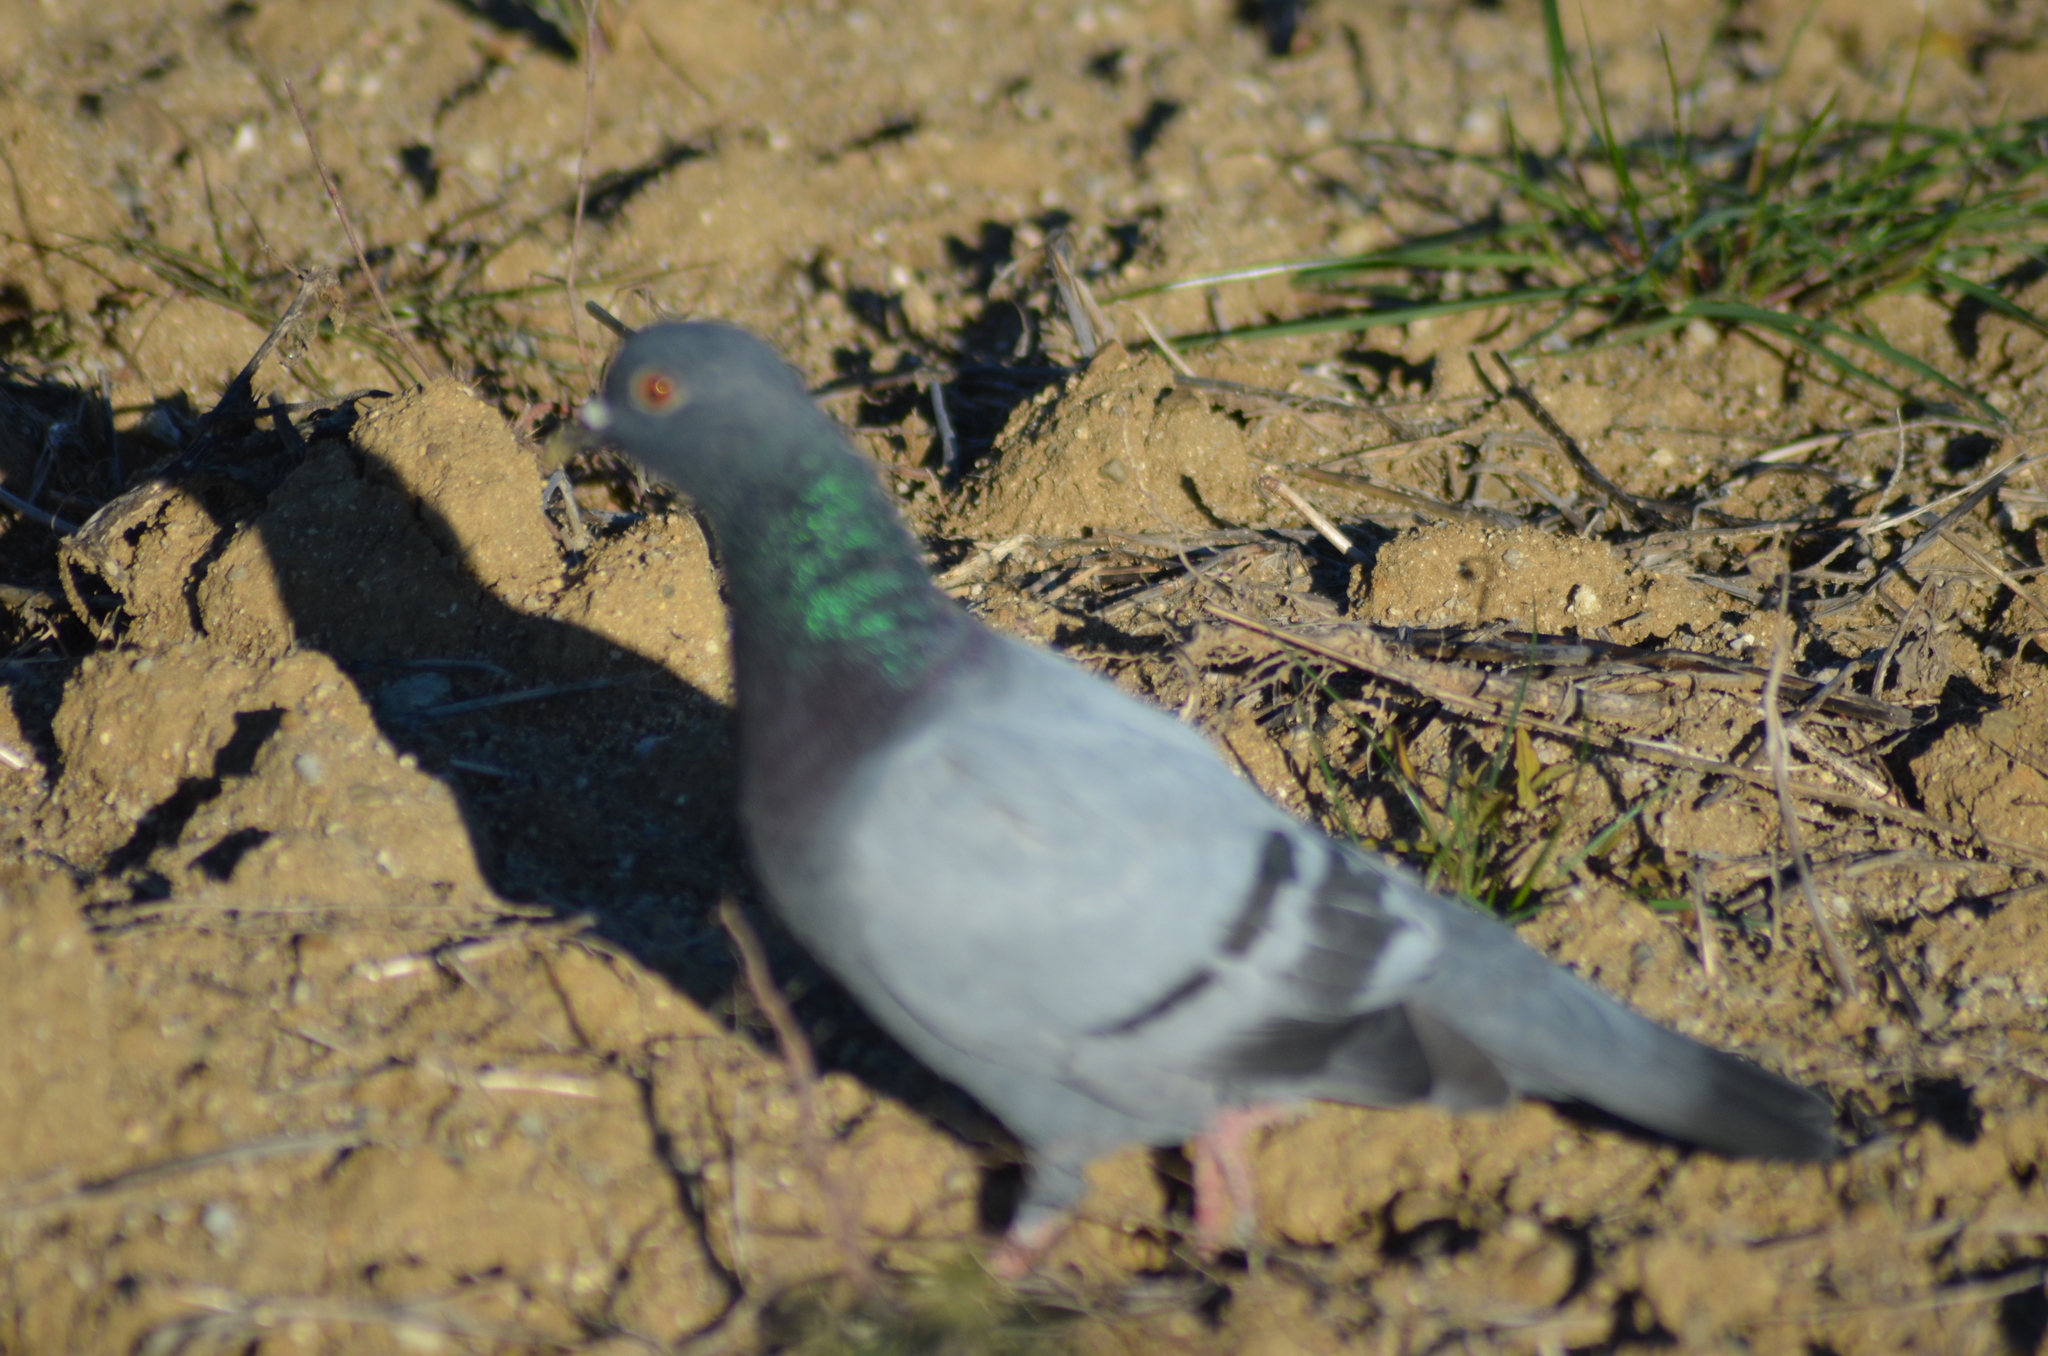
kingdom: Animalia
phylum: Chordata
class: Aves
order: Columbiformes
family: Columbidae
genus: Columba
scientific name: Columba livia
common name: Rock pigeon
